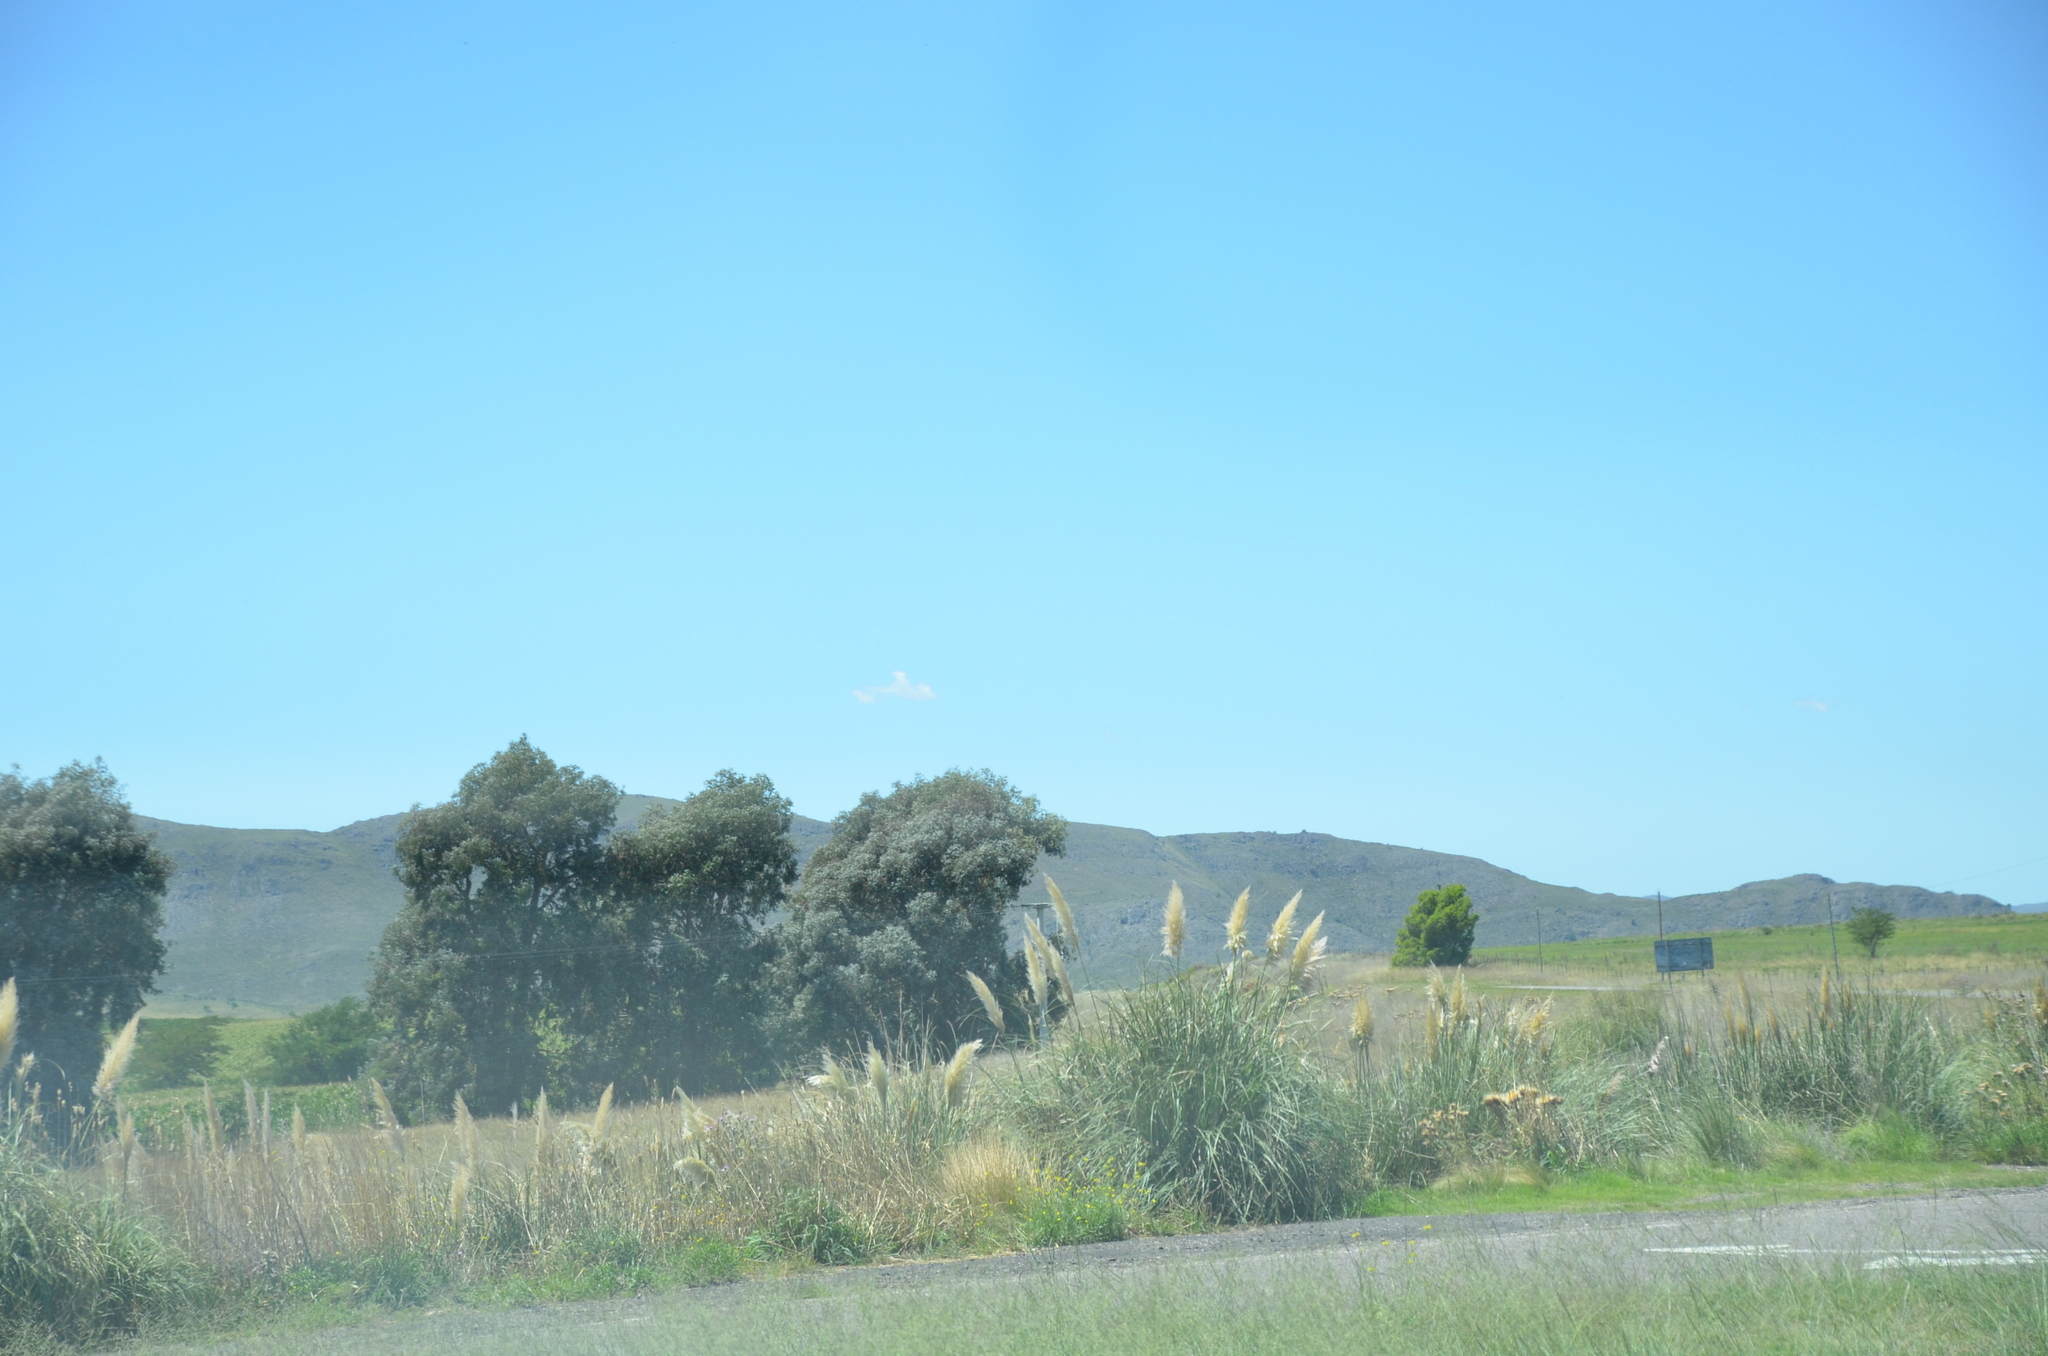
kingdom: Plantae
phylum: Tracheophyta
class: Liliopsida
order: Poales
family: Poaceae
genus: Cortaderia
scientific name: Cortaderia selloana
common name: Uruguayan pampas grass
